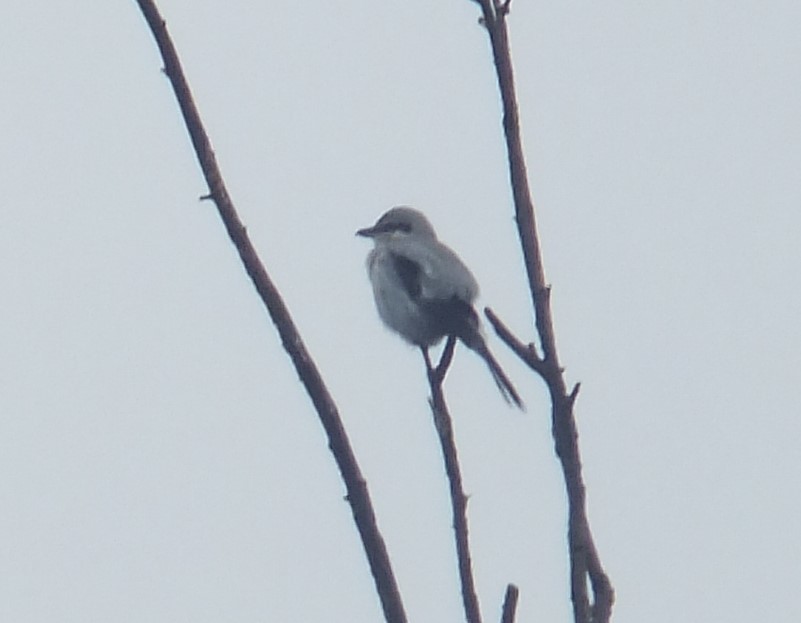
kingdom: Animalia
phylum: Chordata
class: Aves
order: Passeriformes
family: Laniidae
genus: Lanius
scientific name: Lanius borealis
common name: Northern shrike
